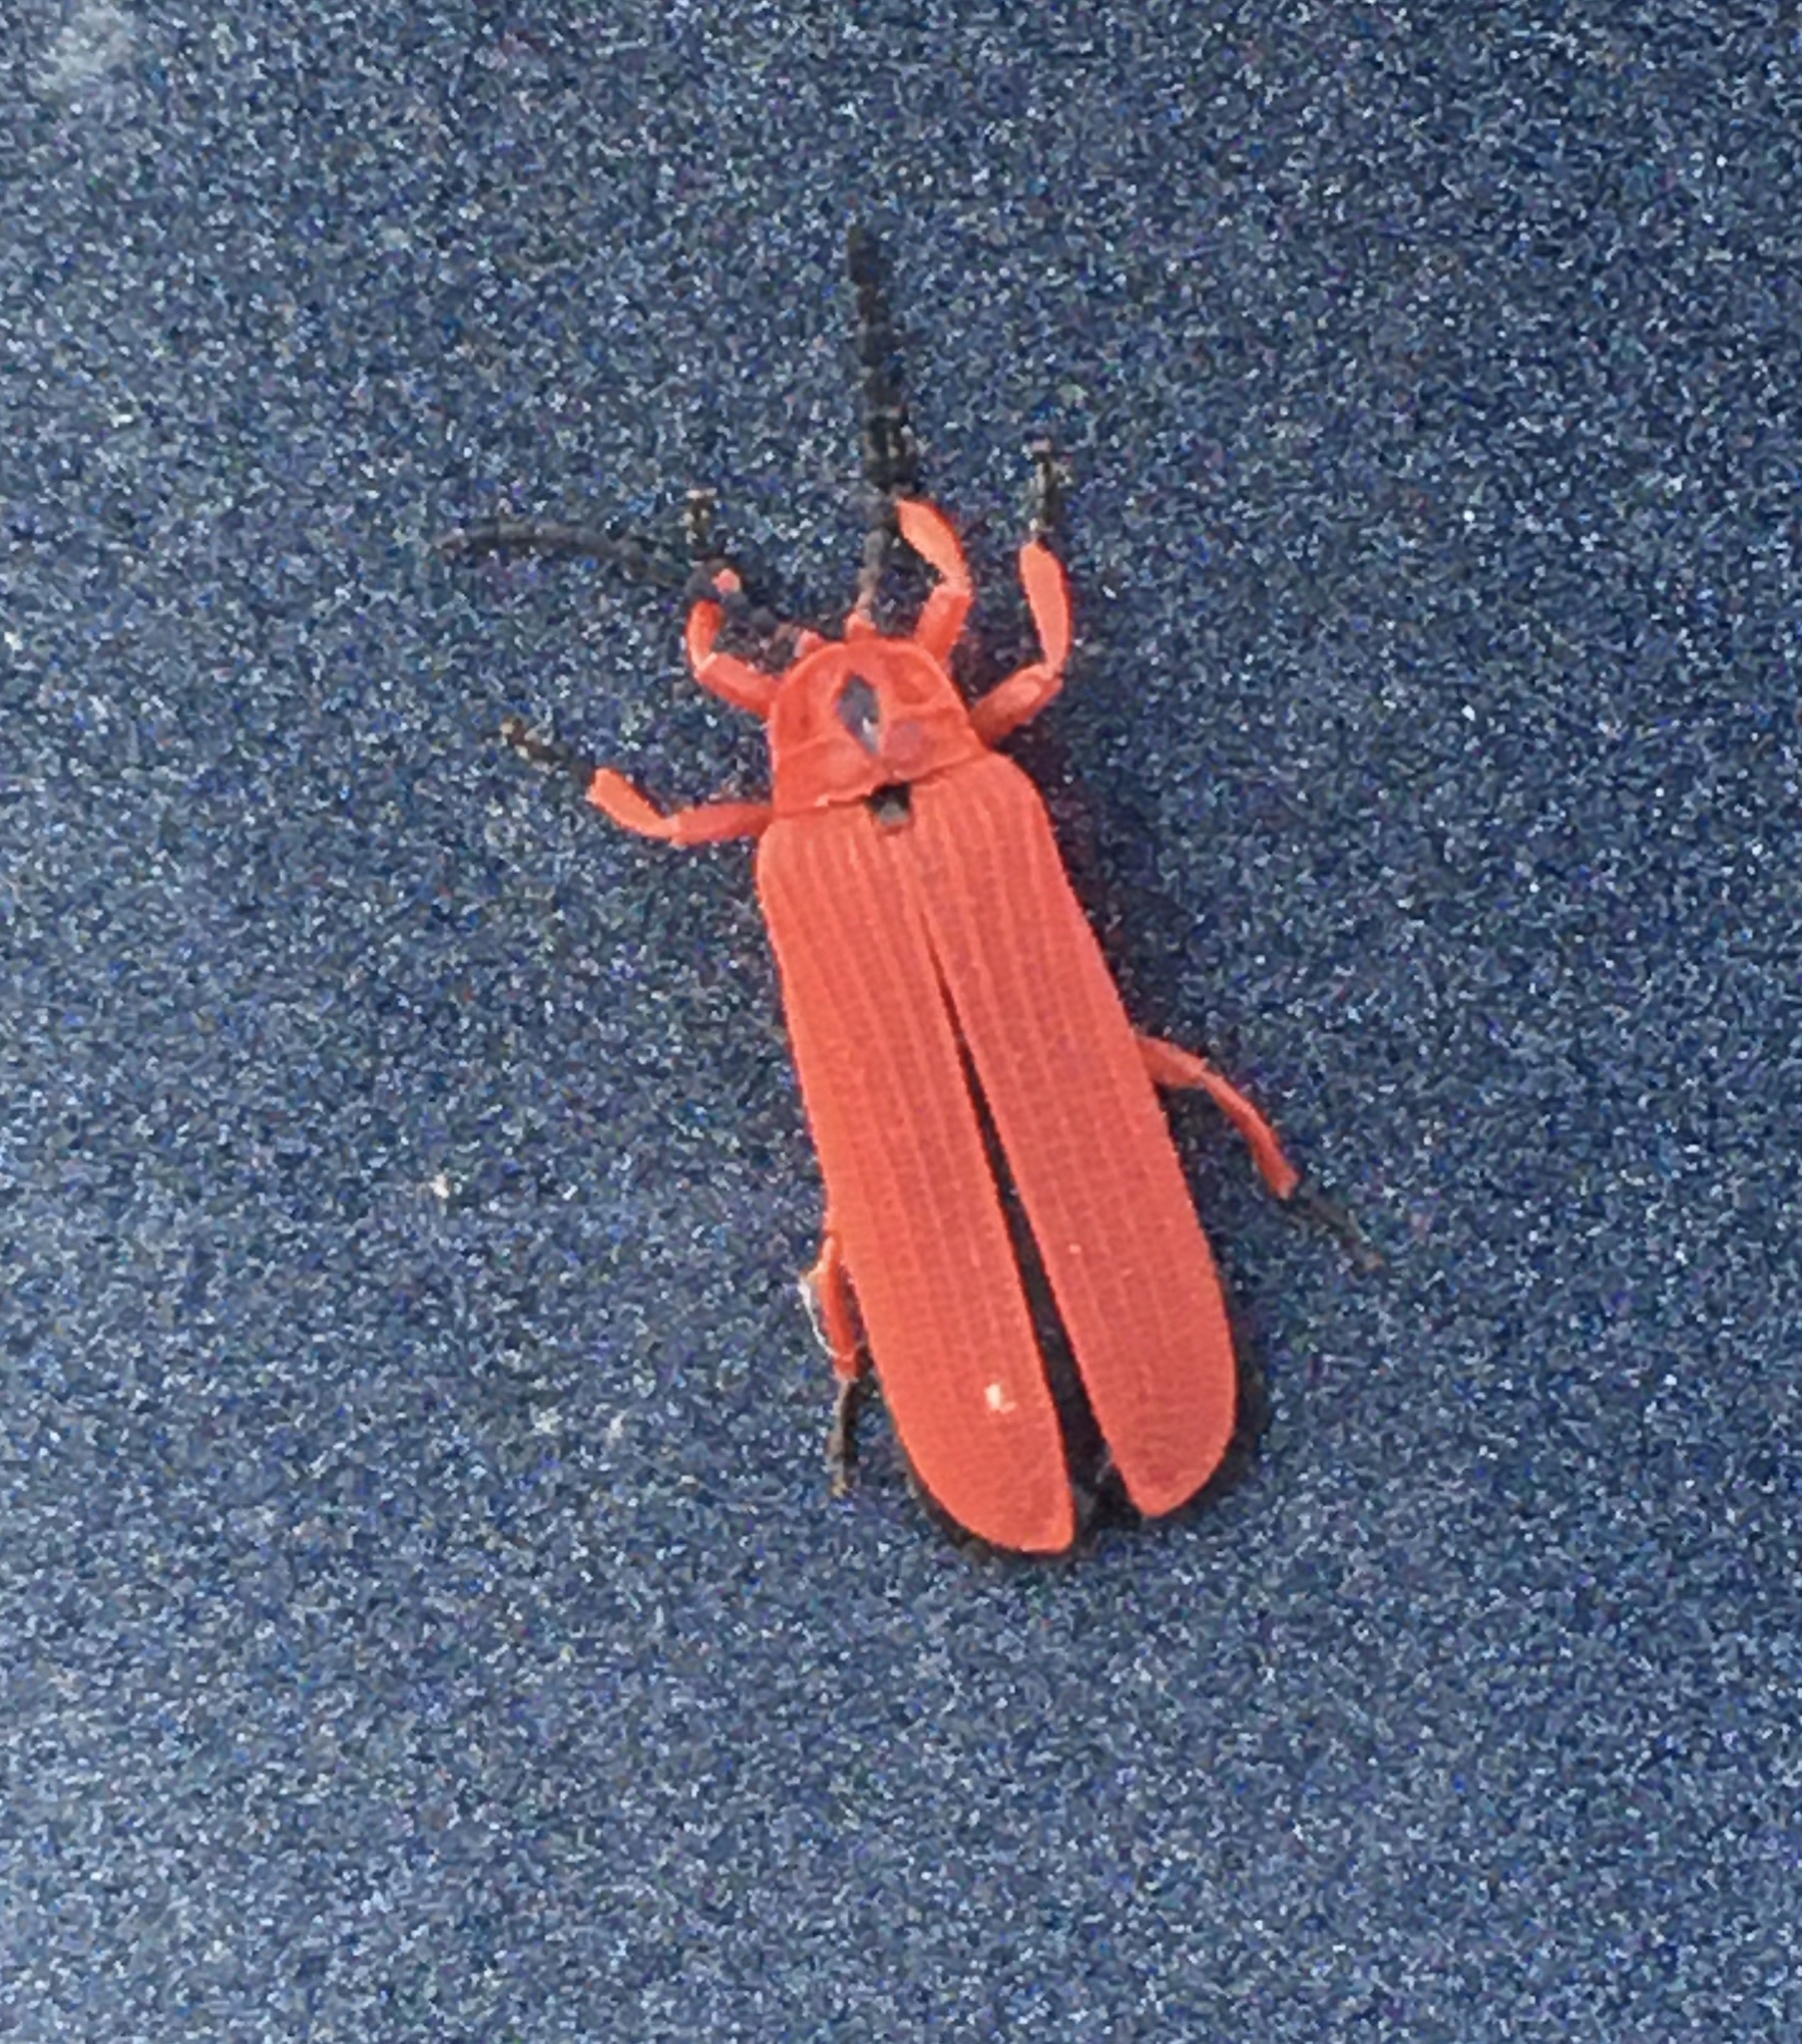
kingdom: Animalia
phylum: Arthropoda
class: Insecta
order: Coleoptera
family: Lycidae
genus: Dictyoptera
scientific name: Dictyoptera simplicipes
